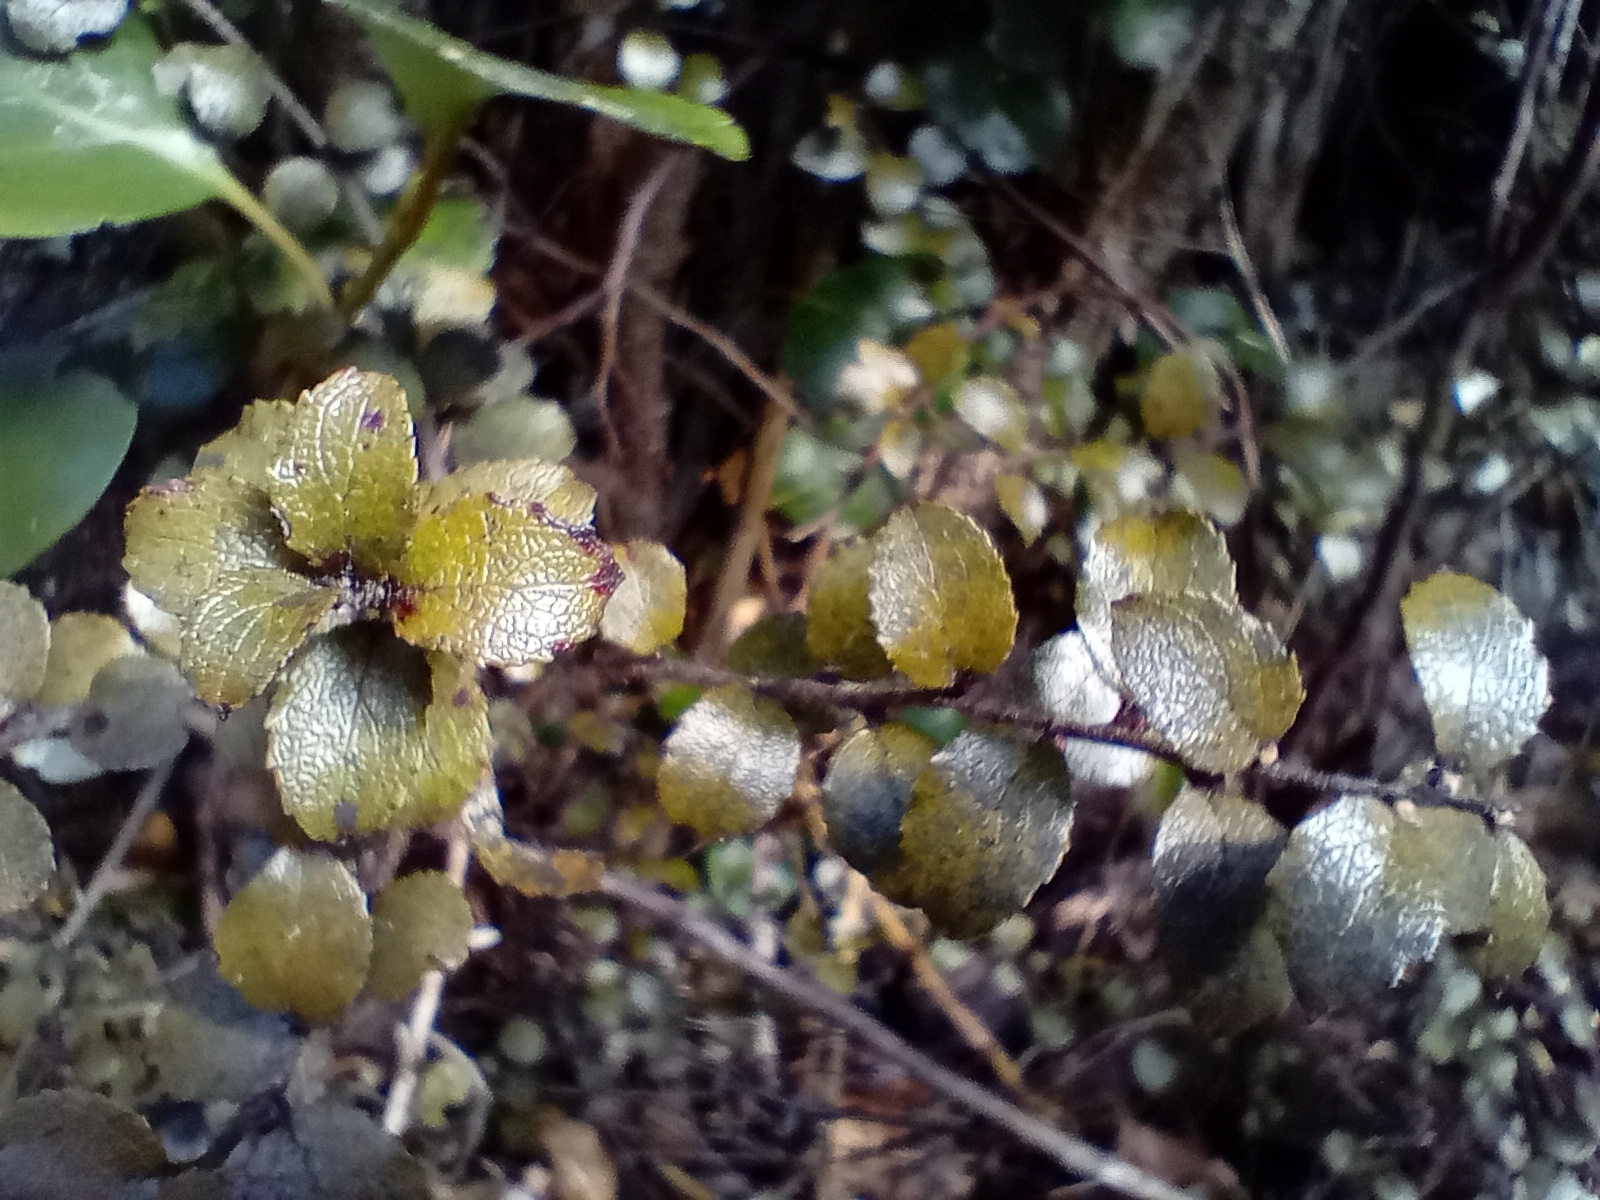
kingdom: Plantae
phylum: Tracheophyta
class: Magnoliopsida
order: Ericales
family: Ericaceae
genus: Gaultheria
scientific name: Gaultheria antipoda
